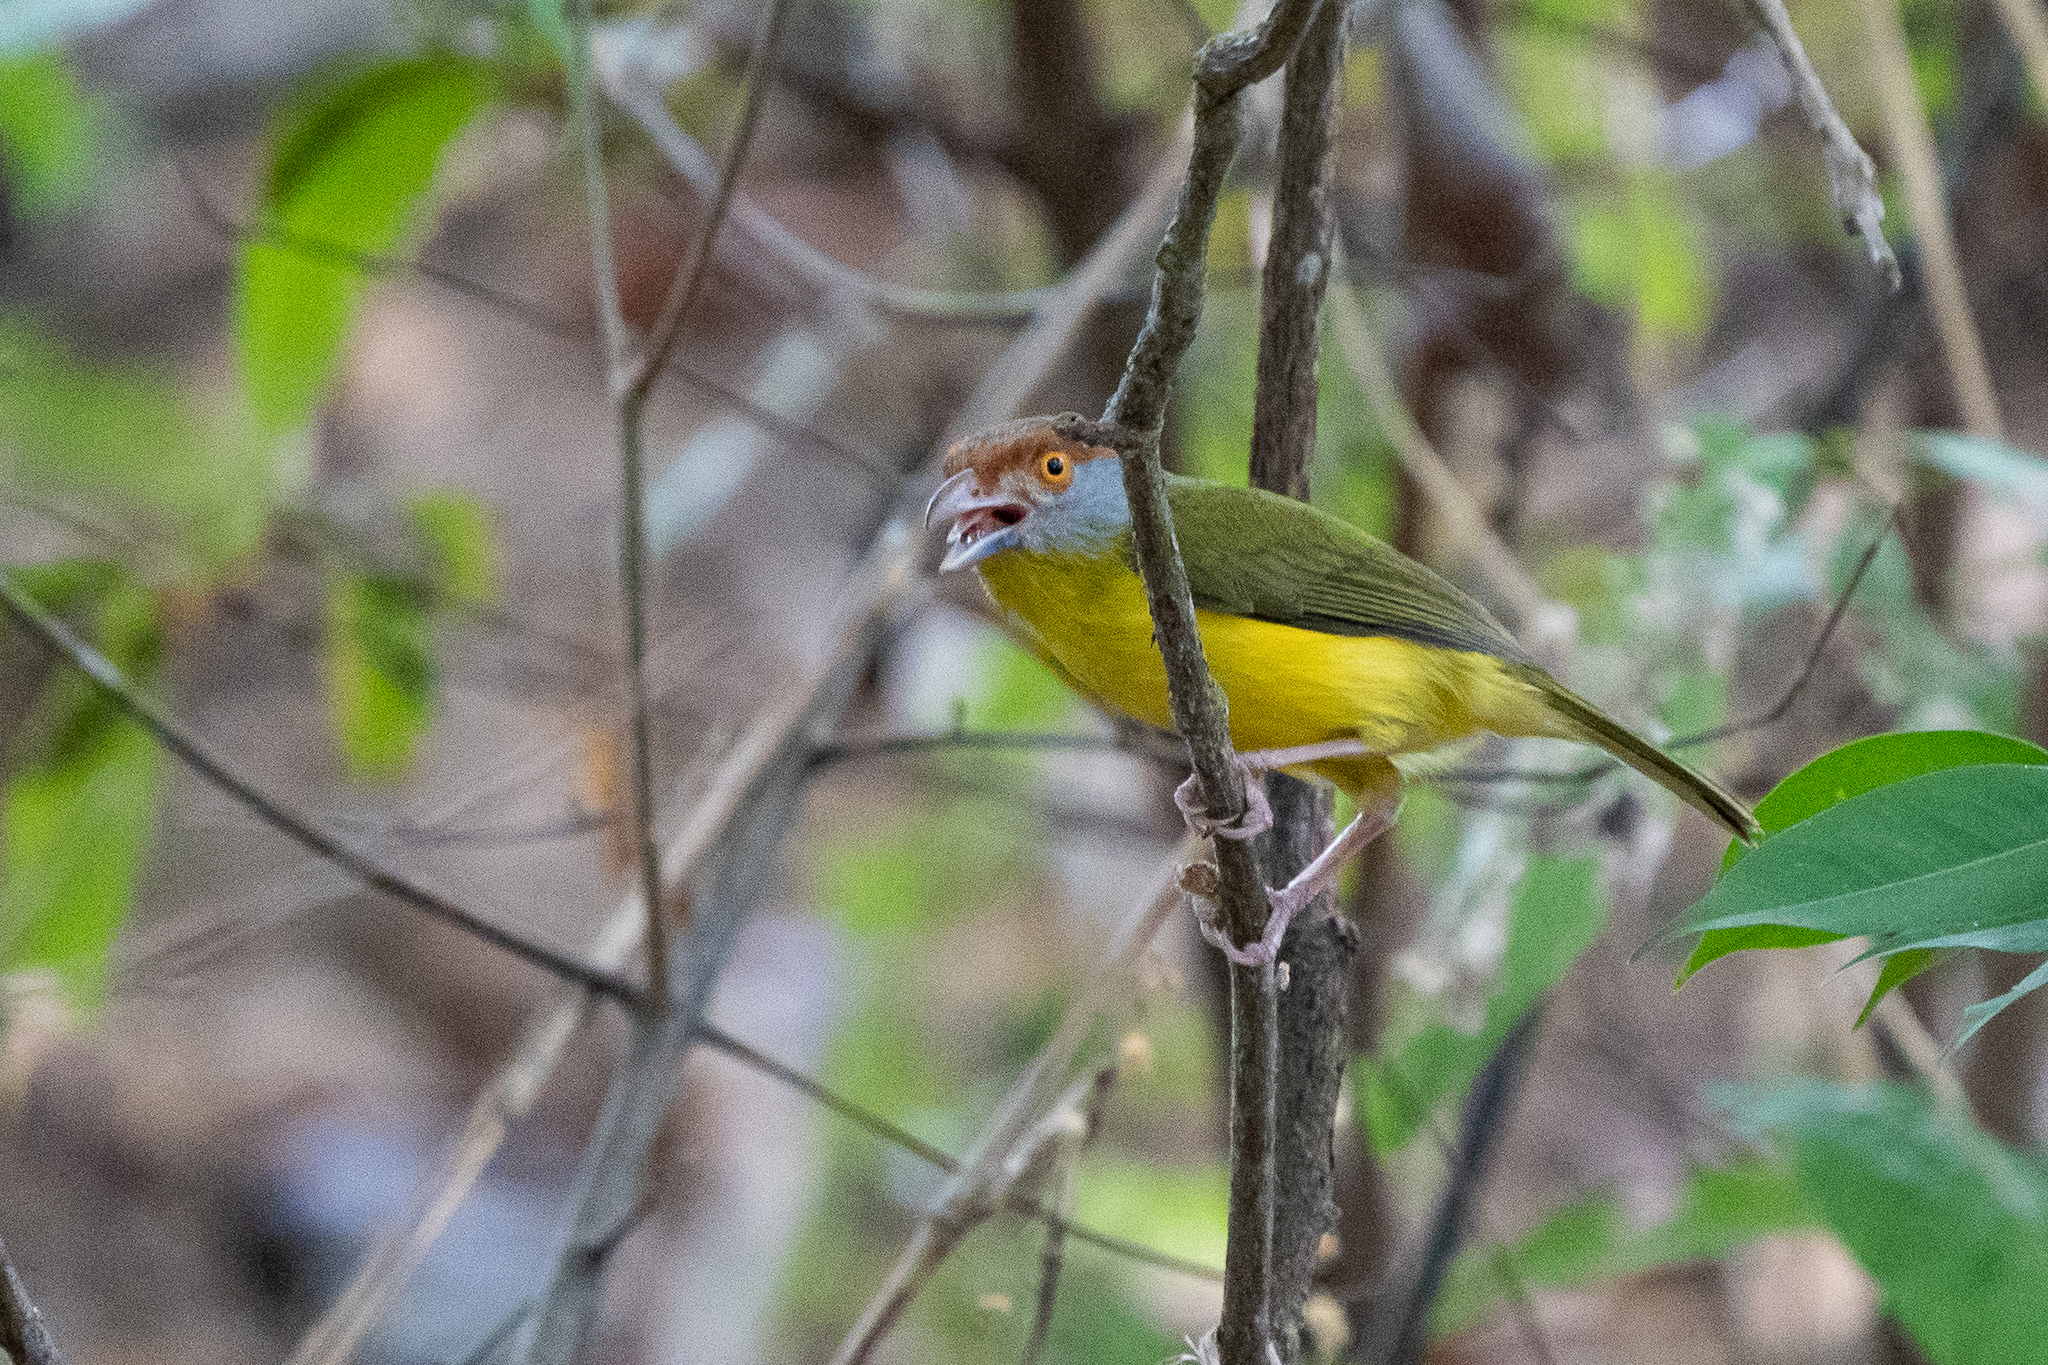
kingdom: Animalia
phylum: Chordata
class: Aves
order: Passeriformes
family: Vireonidae
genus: Cyclarhis
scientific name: Cyclarhis gujanensis
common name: Rufous-browed peppershrike
